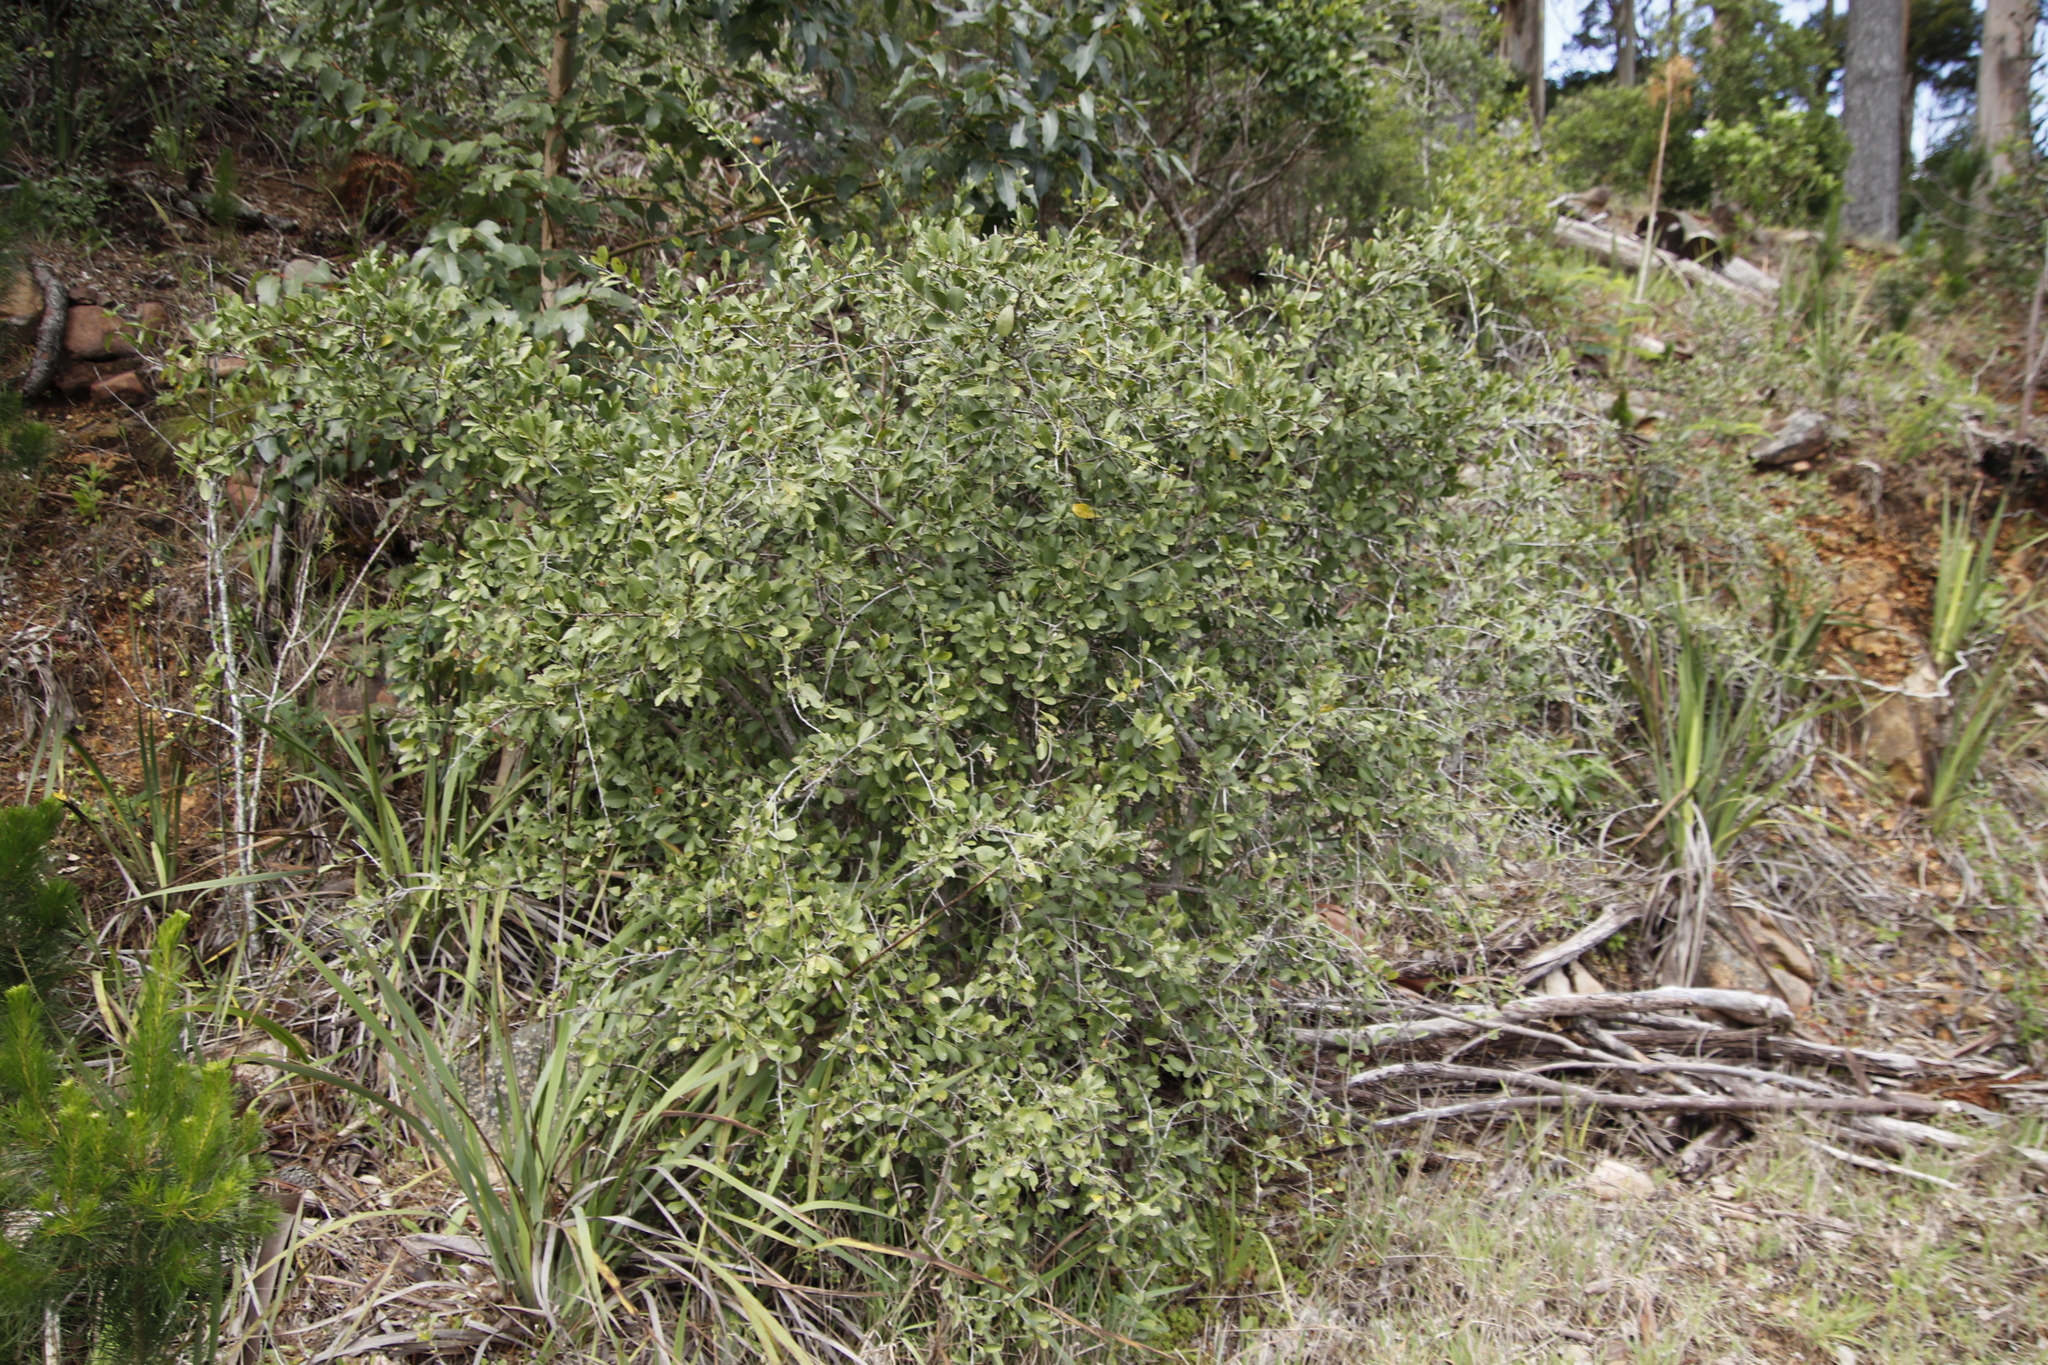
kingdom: Plantae
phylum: Tracheophyta
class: Magnoliopsida
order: Celastrales
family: Celastraceae
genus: Gymnosporia
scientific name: Gymnosporia buxifolia
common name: Common spike-thorn
